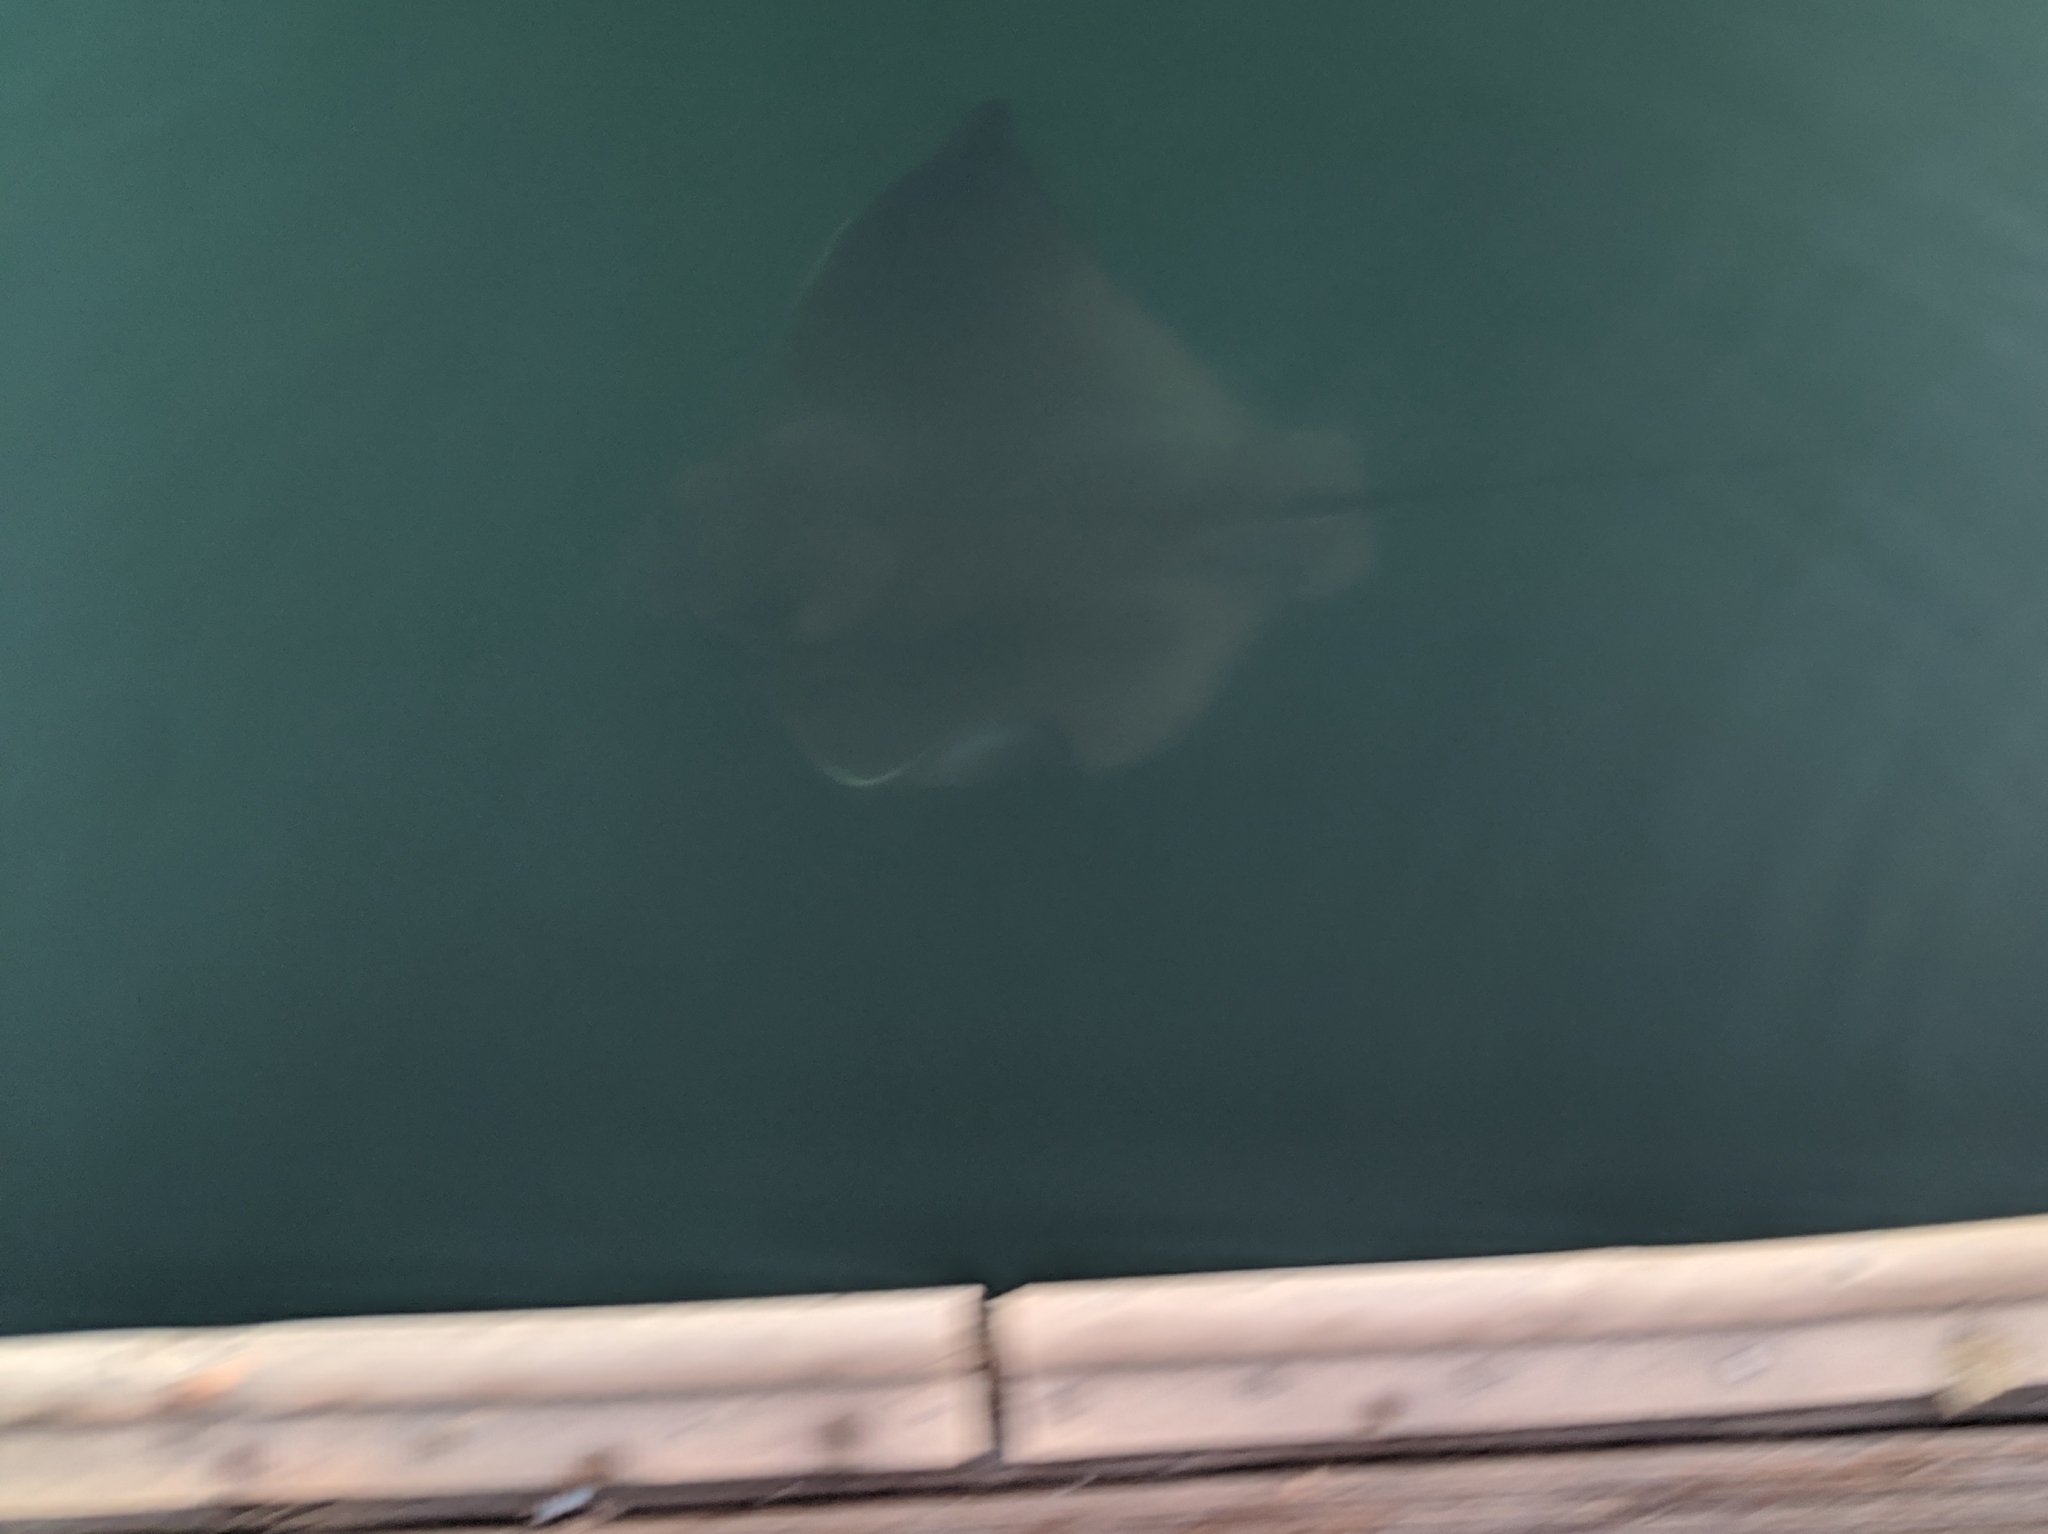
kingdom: Animalia
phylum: Chordata
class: Elasmobranchii
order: Myliobatiformes
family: Myliobatidae
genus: Myliobatis
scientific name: Myliobatis californica
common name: Bat ray
